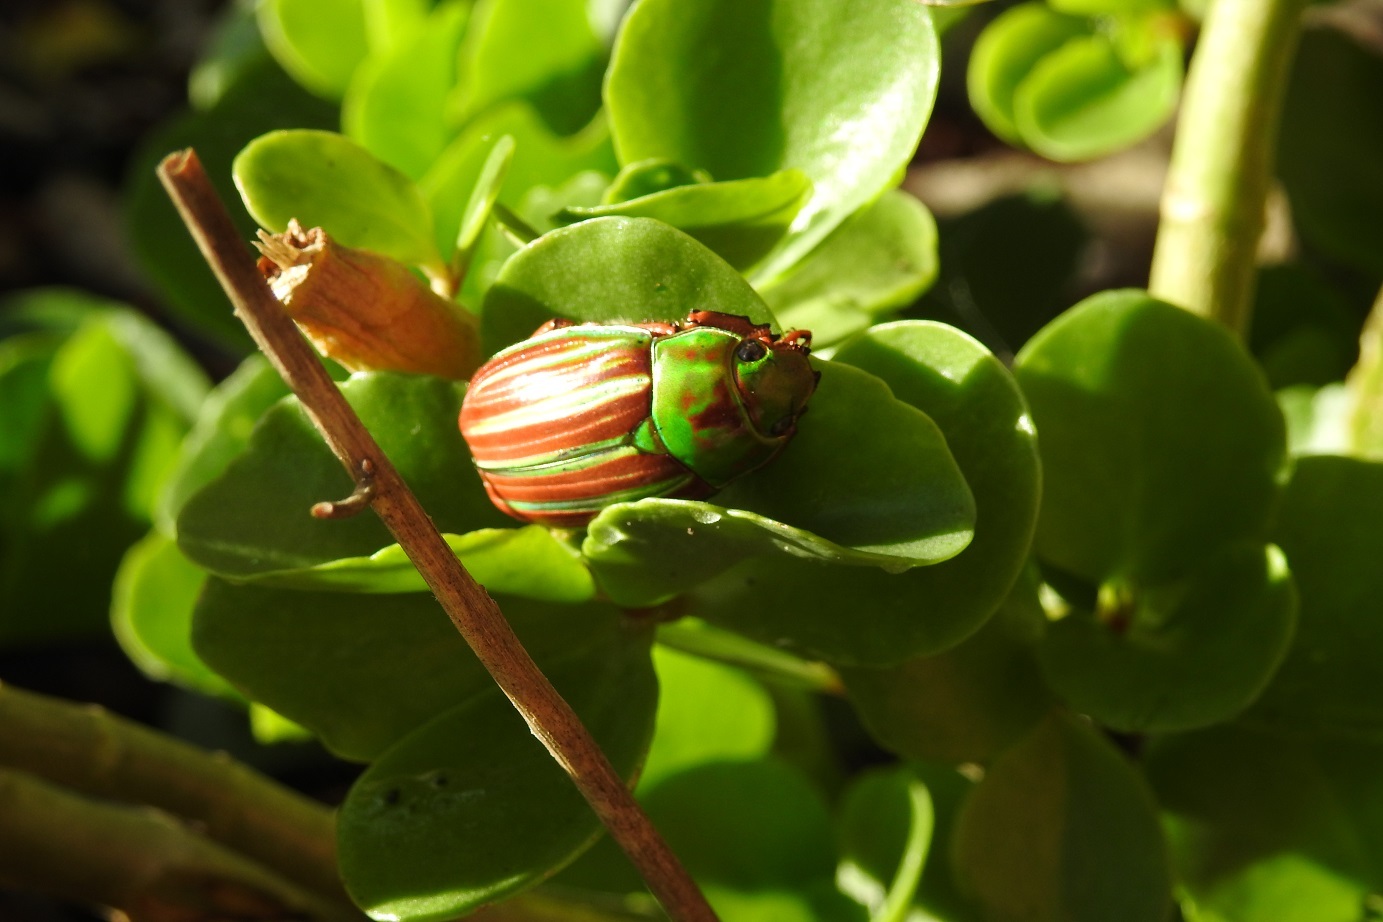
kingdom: Animalia
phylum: Arthropoda
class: Insecta
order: Coleoptera
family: Scarabaeidae
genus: Chrysina
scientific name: Chrysina quetzalcoatli
